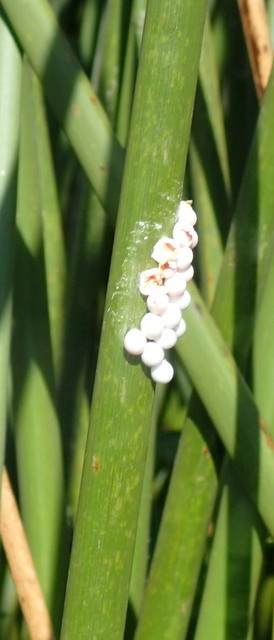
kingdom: Animalia
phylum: Mollusca
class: Gastropoda
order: Architaenioglossa
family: Ampullariidae
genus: Pomacea
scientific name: Pomacea paludosa
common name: Florida applesnail
